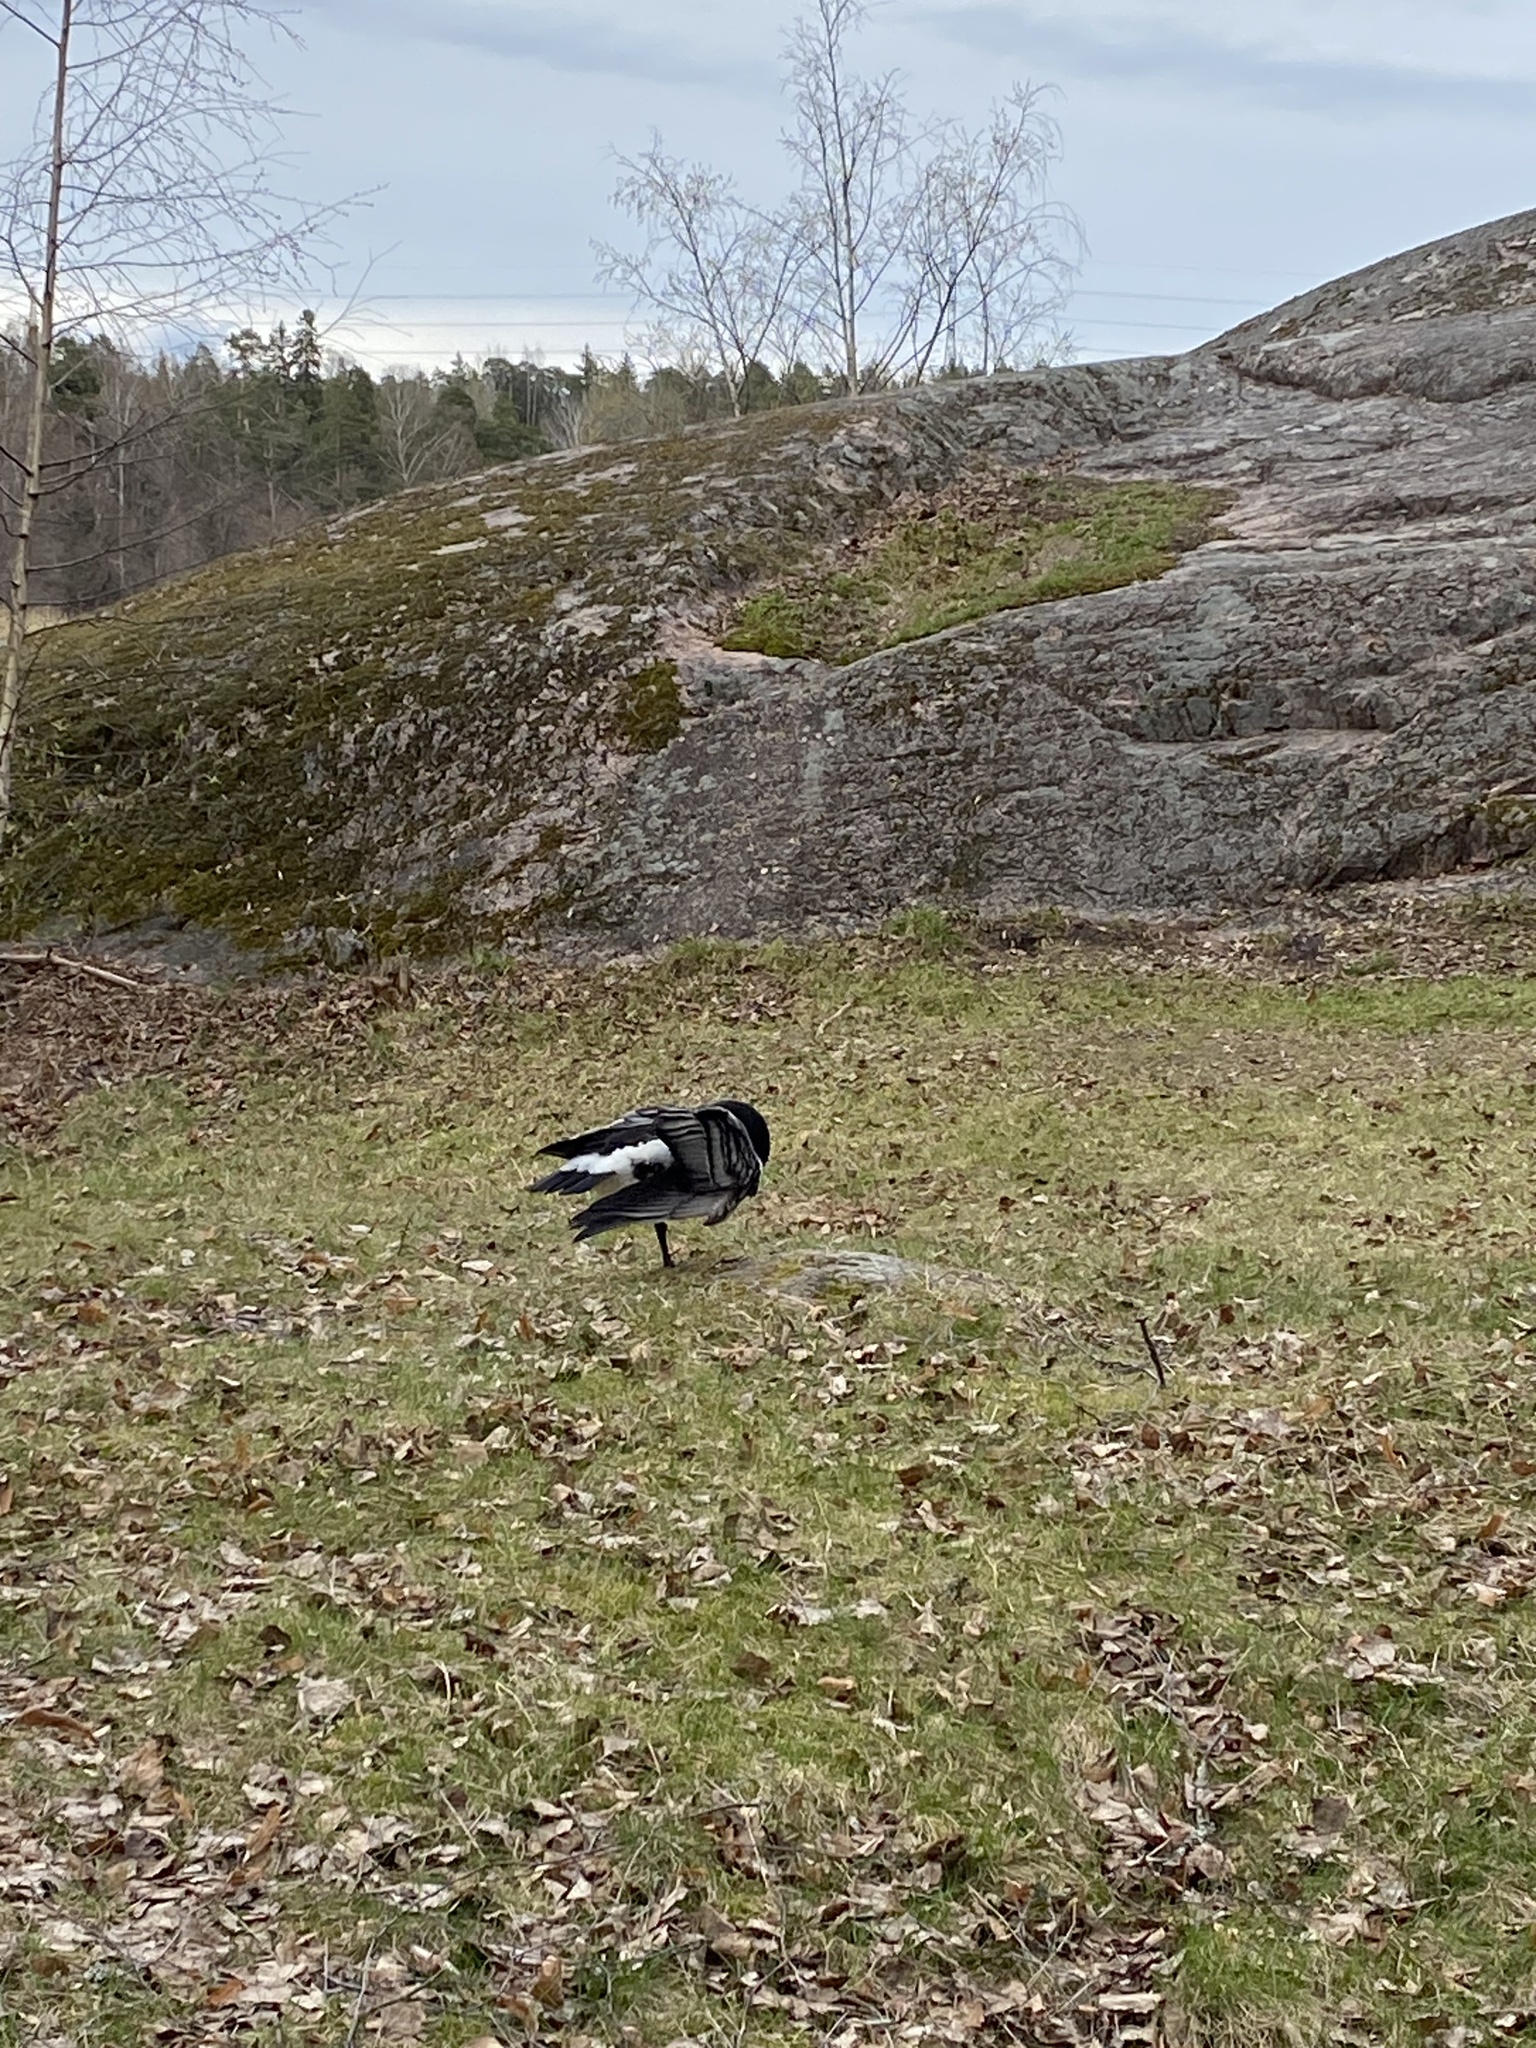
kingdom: Animalia
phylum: Chordata
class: Aves
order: Anseriformes
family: Anatidae
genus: Branta
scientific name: Branta leucopsis
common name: Barnacle goose
